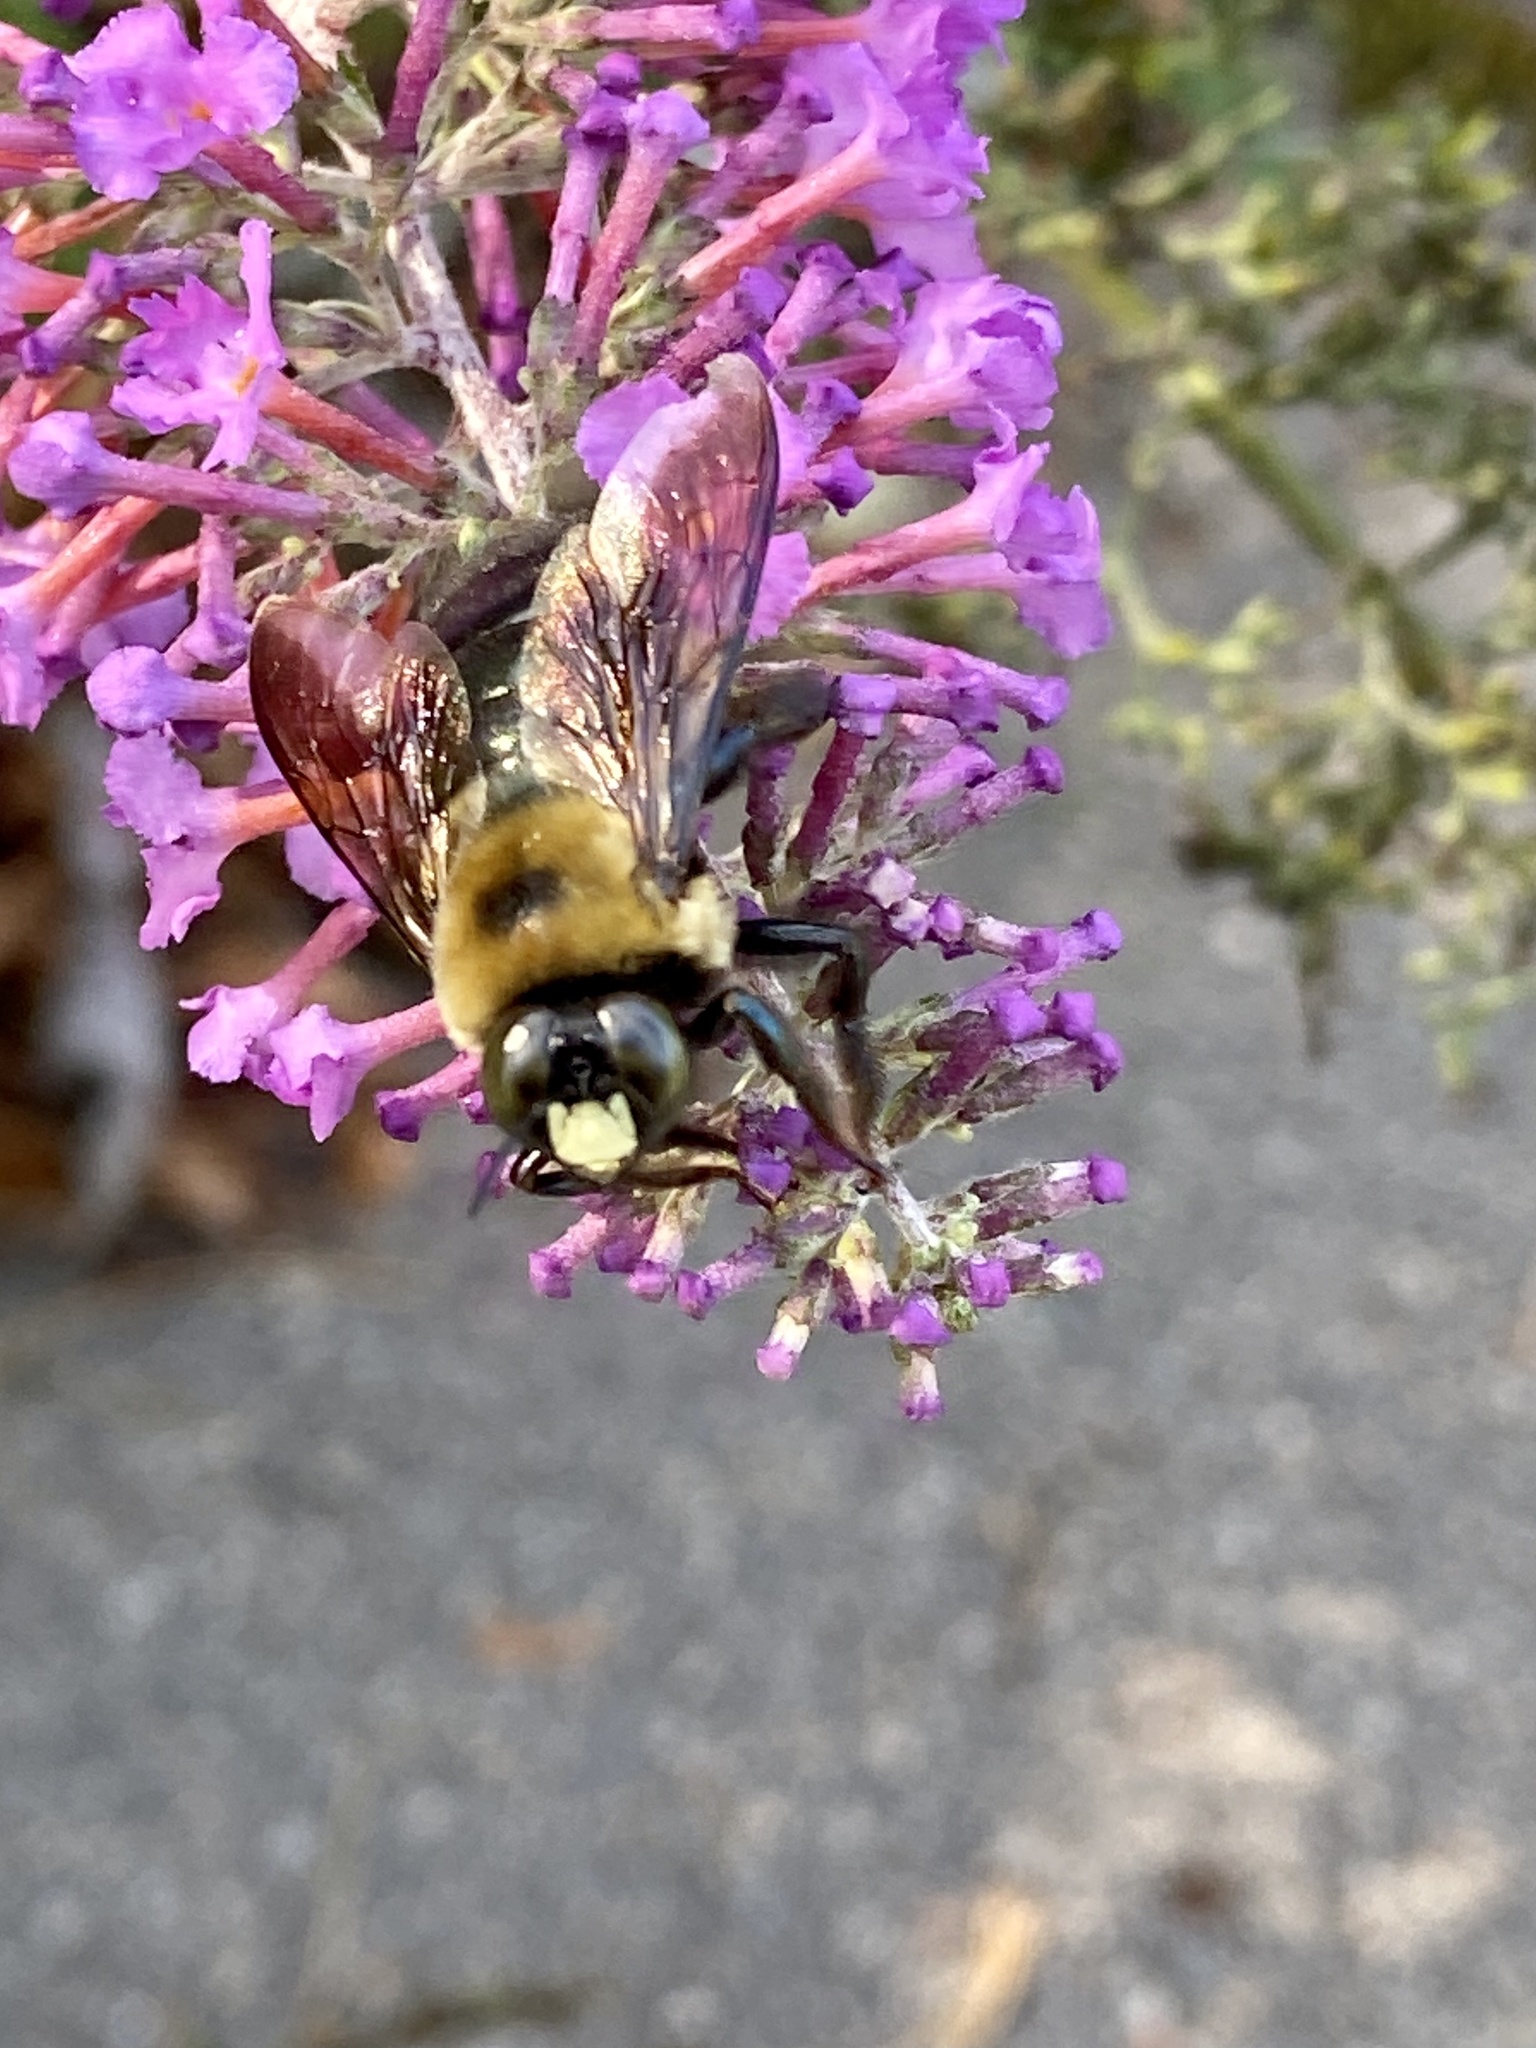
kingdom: Animalia
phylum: Arthropoda
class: Insecta
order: Hymenoptera
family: Apidae
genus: Xylocopa
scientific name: Xylocopa virginica
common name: Carpenter bee
